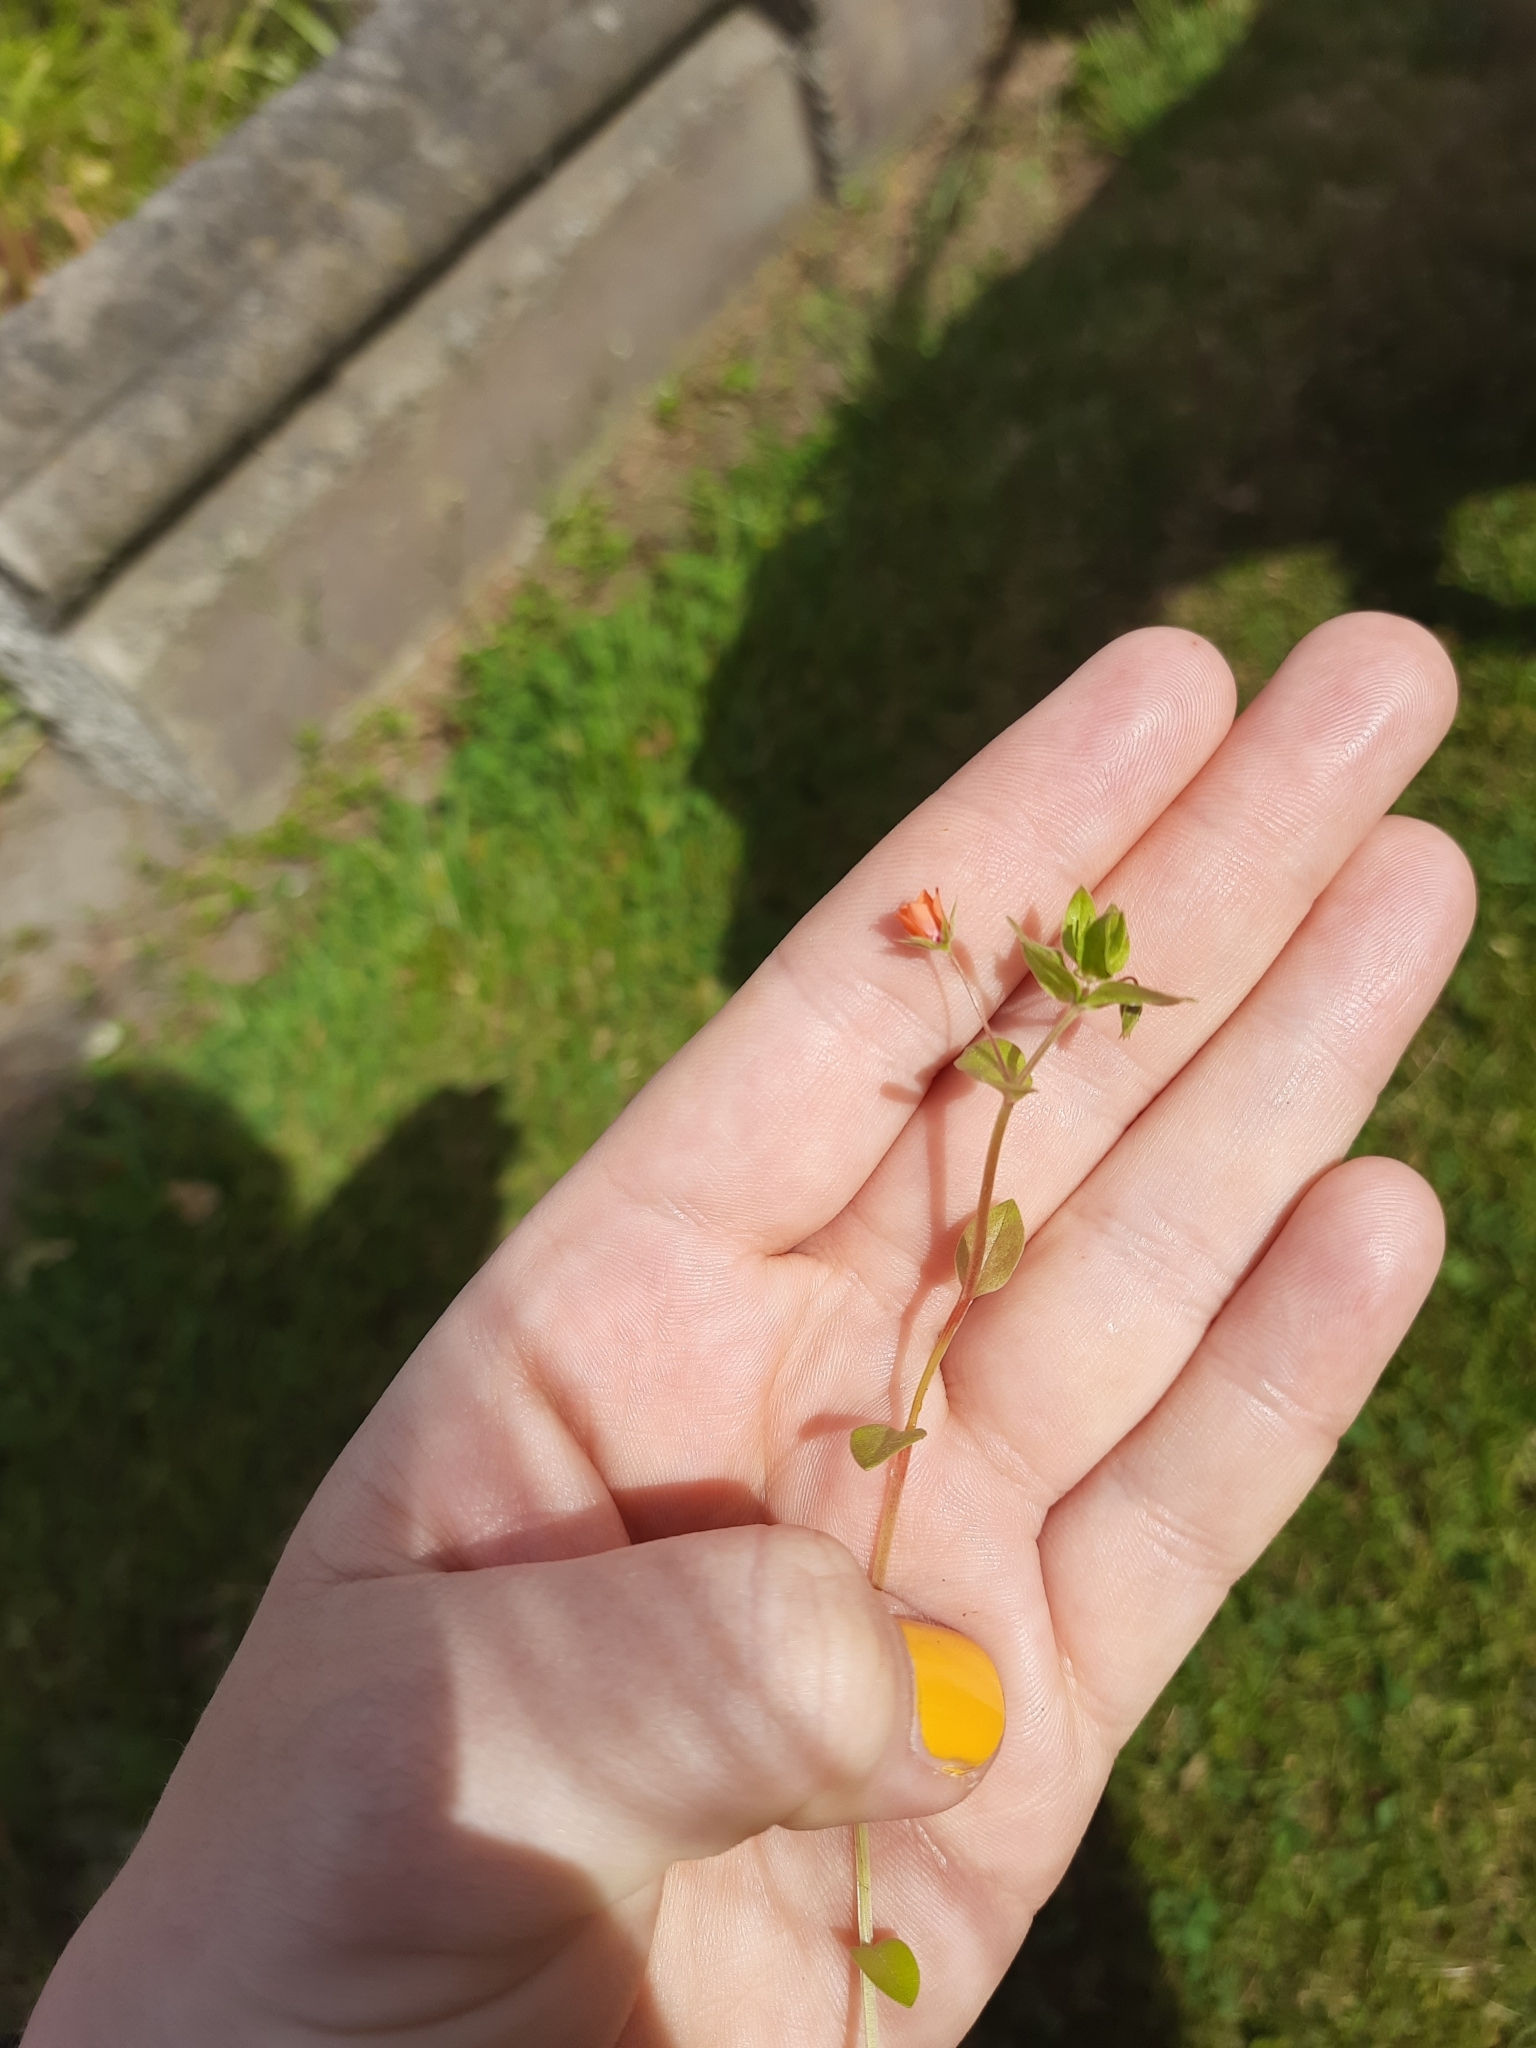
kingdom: Plantae
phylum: Tracheophyta
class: Magnoliopsida
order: Ericales
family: Primulaceae
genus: Lysimachia
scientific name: Lysimachia arvensis
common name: Scarlet pimpernel
